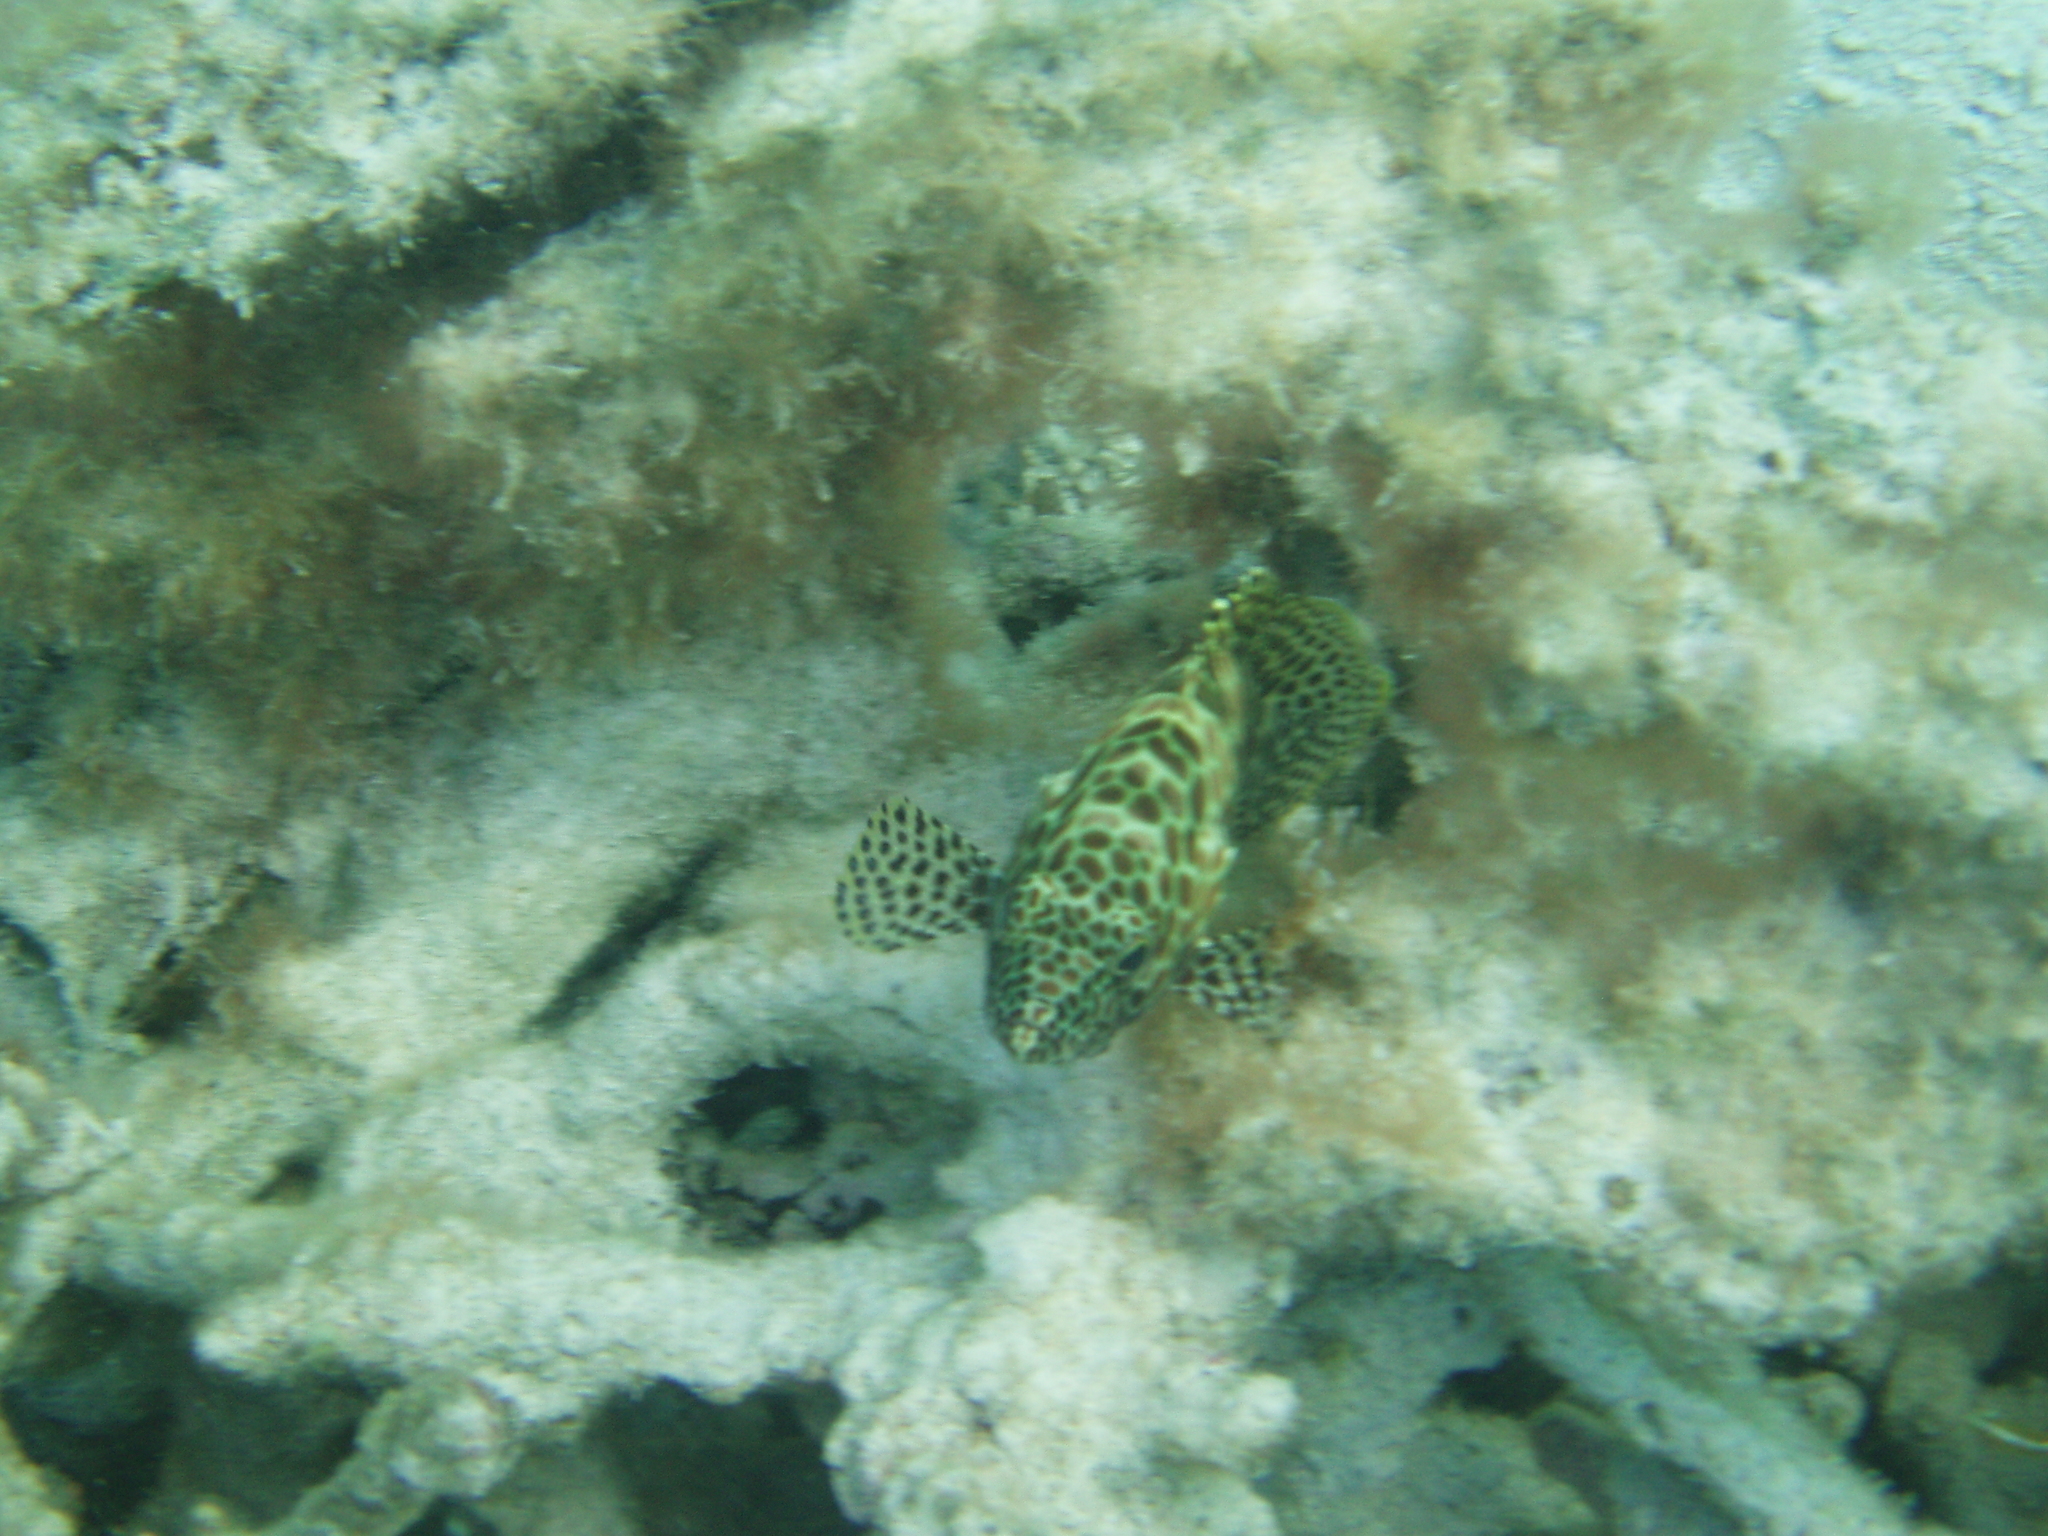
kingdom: Animalia
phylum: Chordata
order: Perciformes
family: Serranidae
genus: Epinephelus
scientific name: Epinephelus merra
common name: Honeycomb grouper
